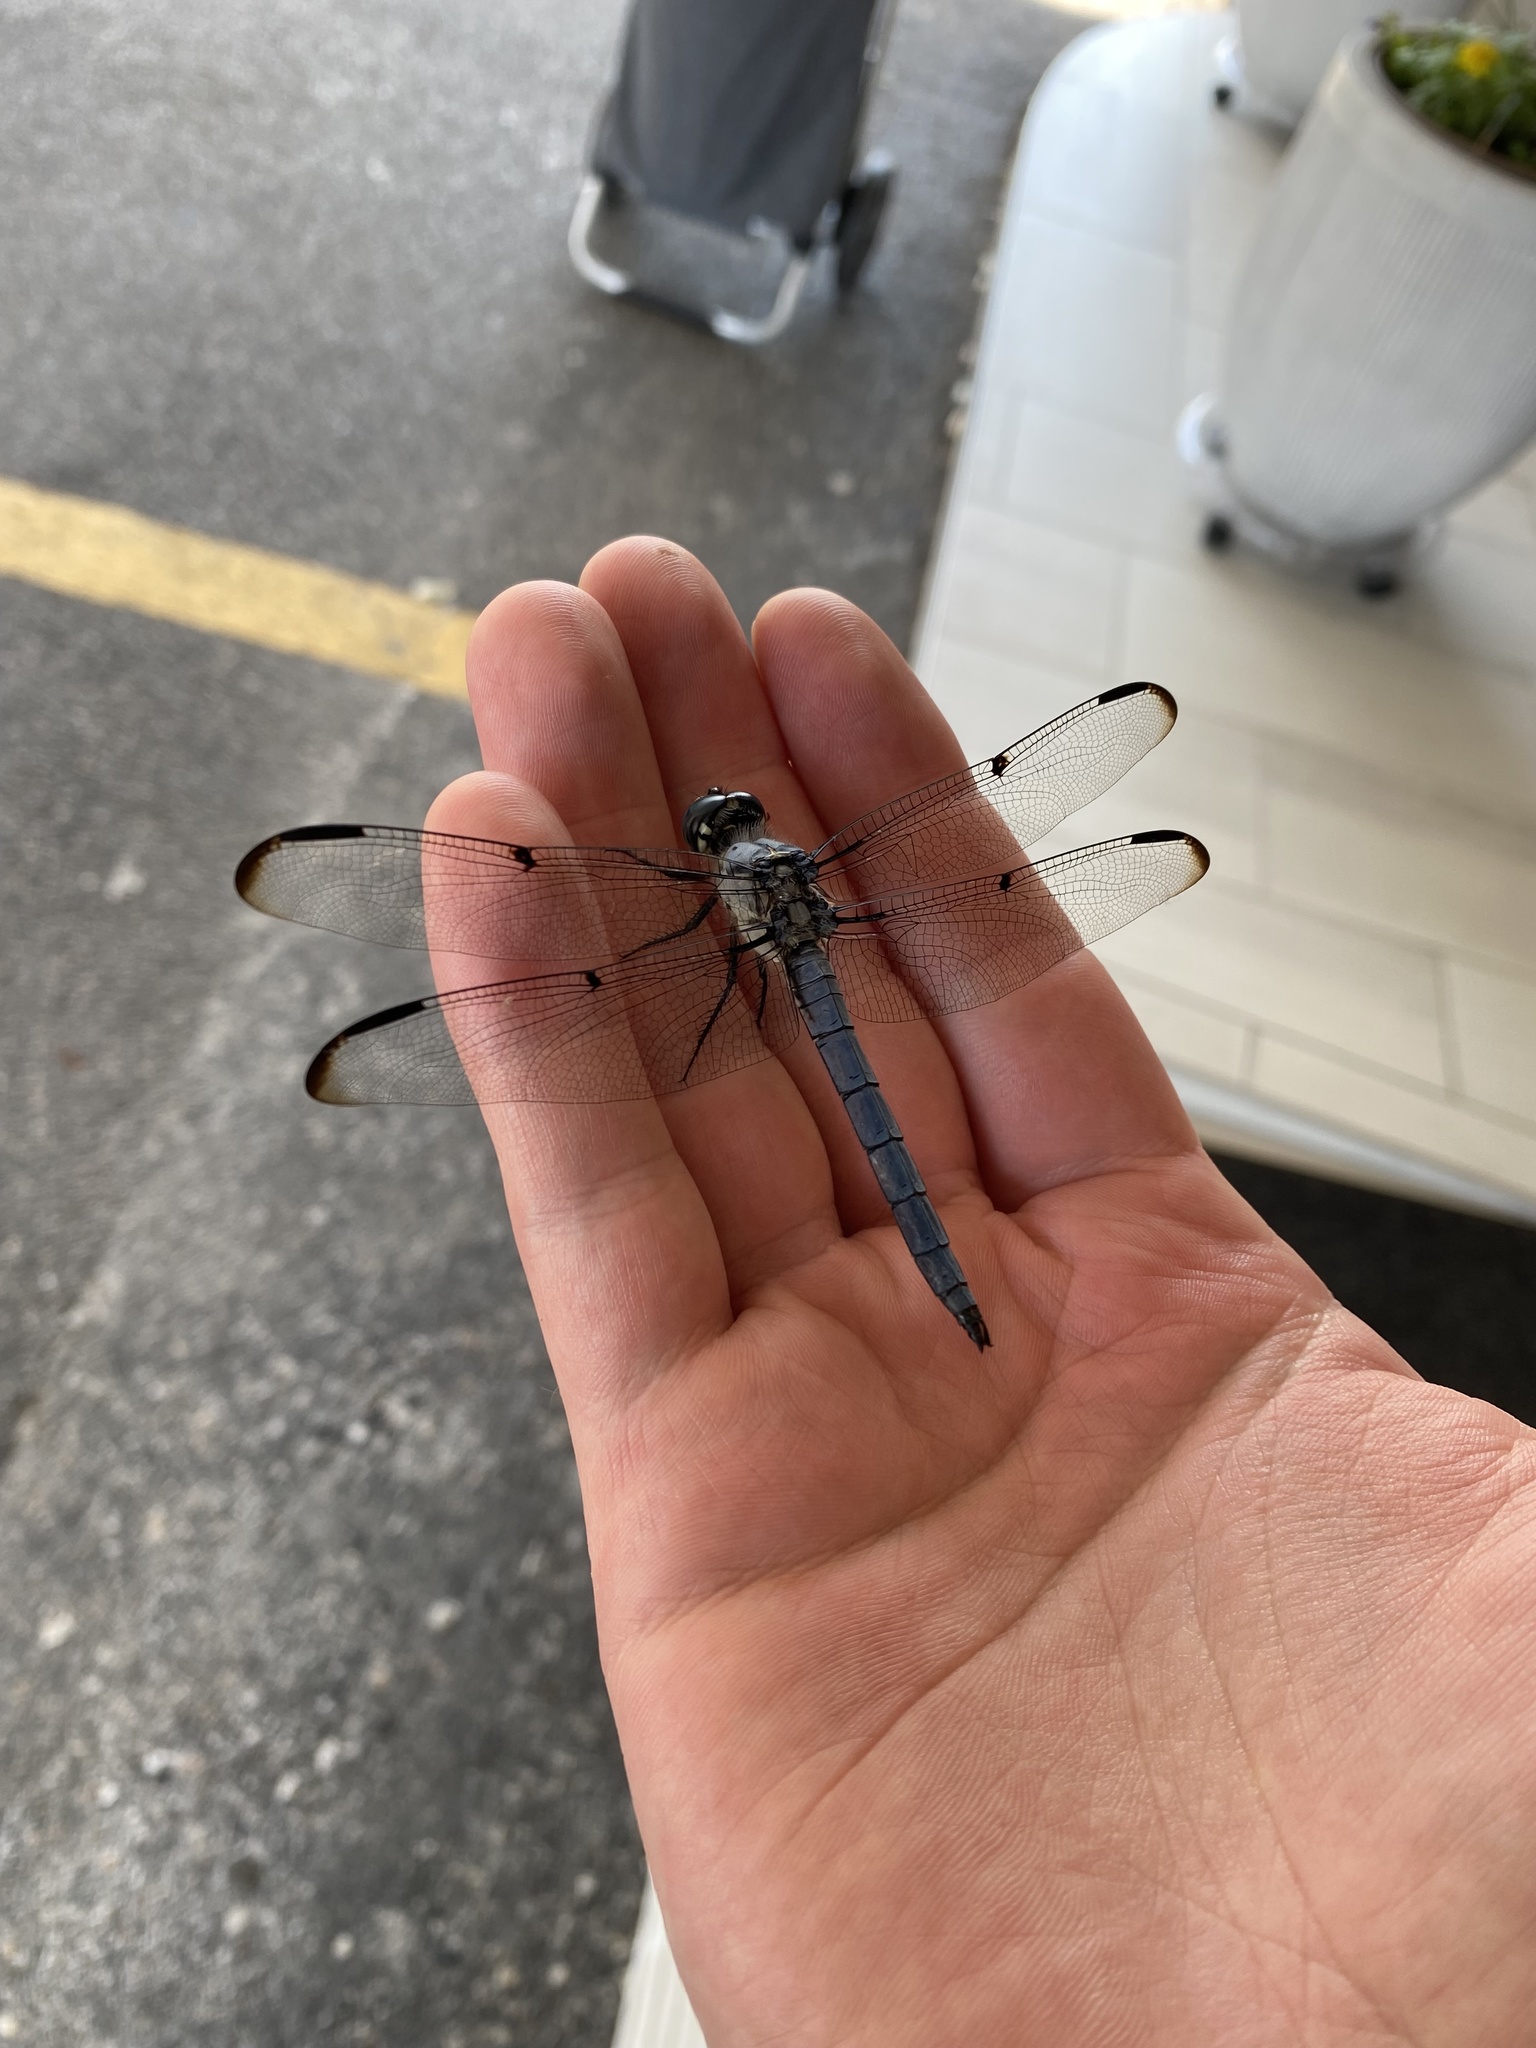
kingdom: Animalia
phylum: Arthropoda
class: Insecta
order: Odonata
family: Libellulidae
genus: Libellula
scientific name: Libellula vibrans
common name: Great blue skimmer
